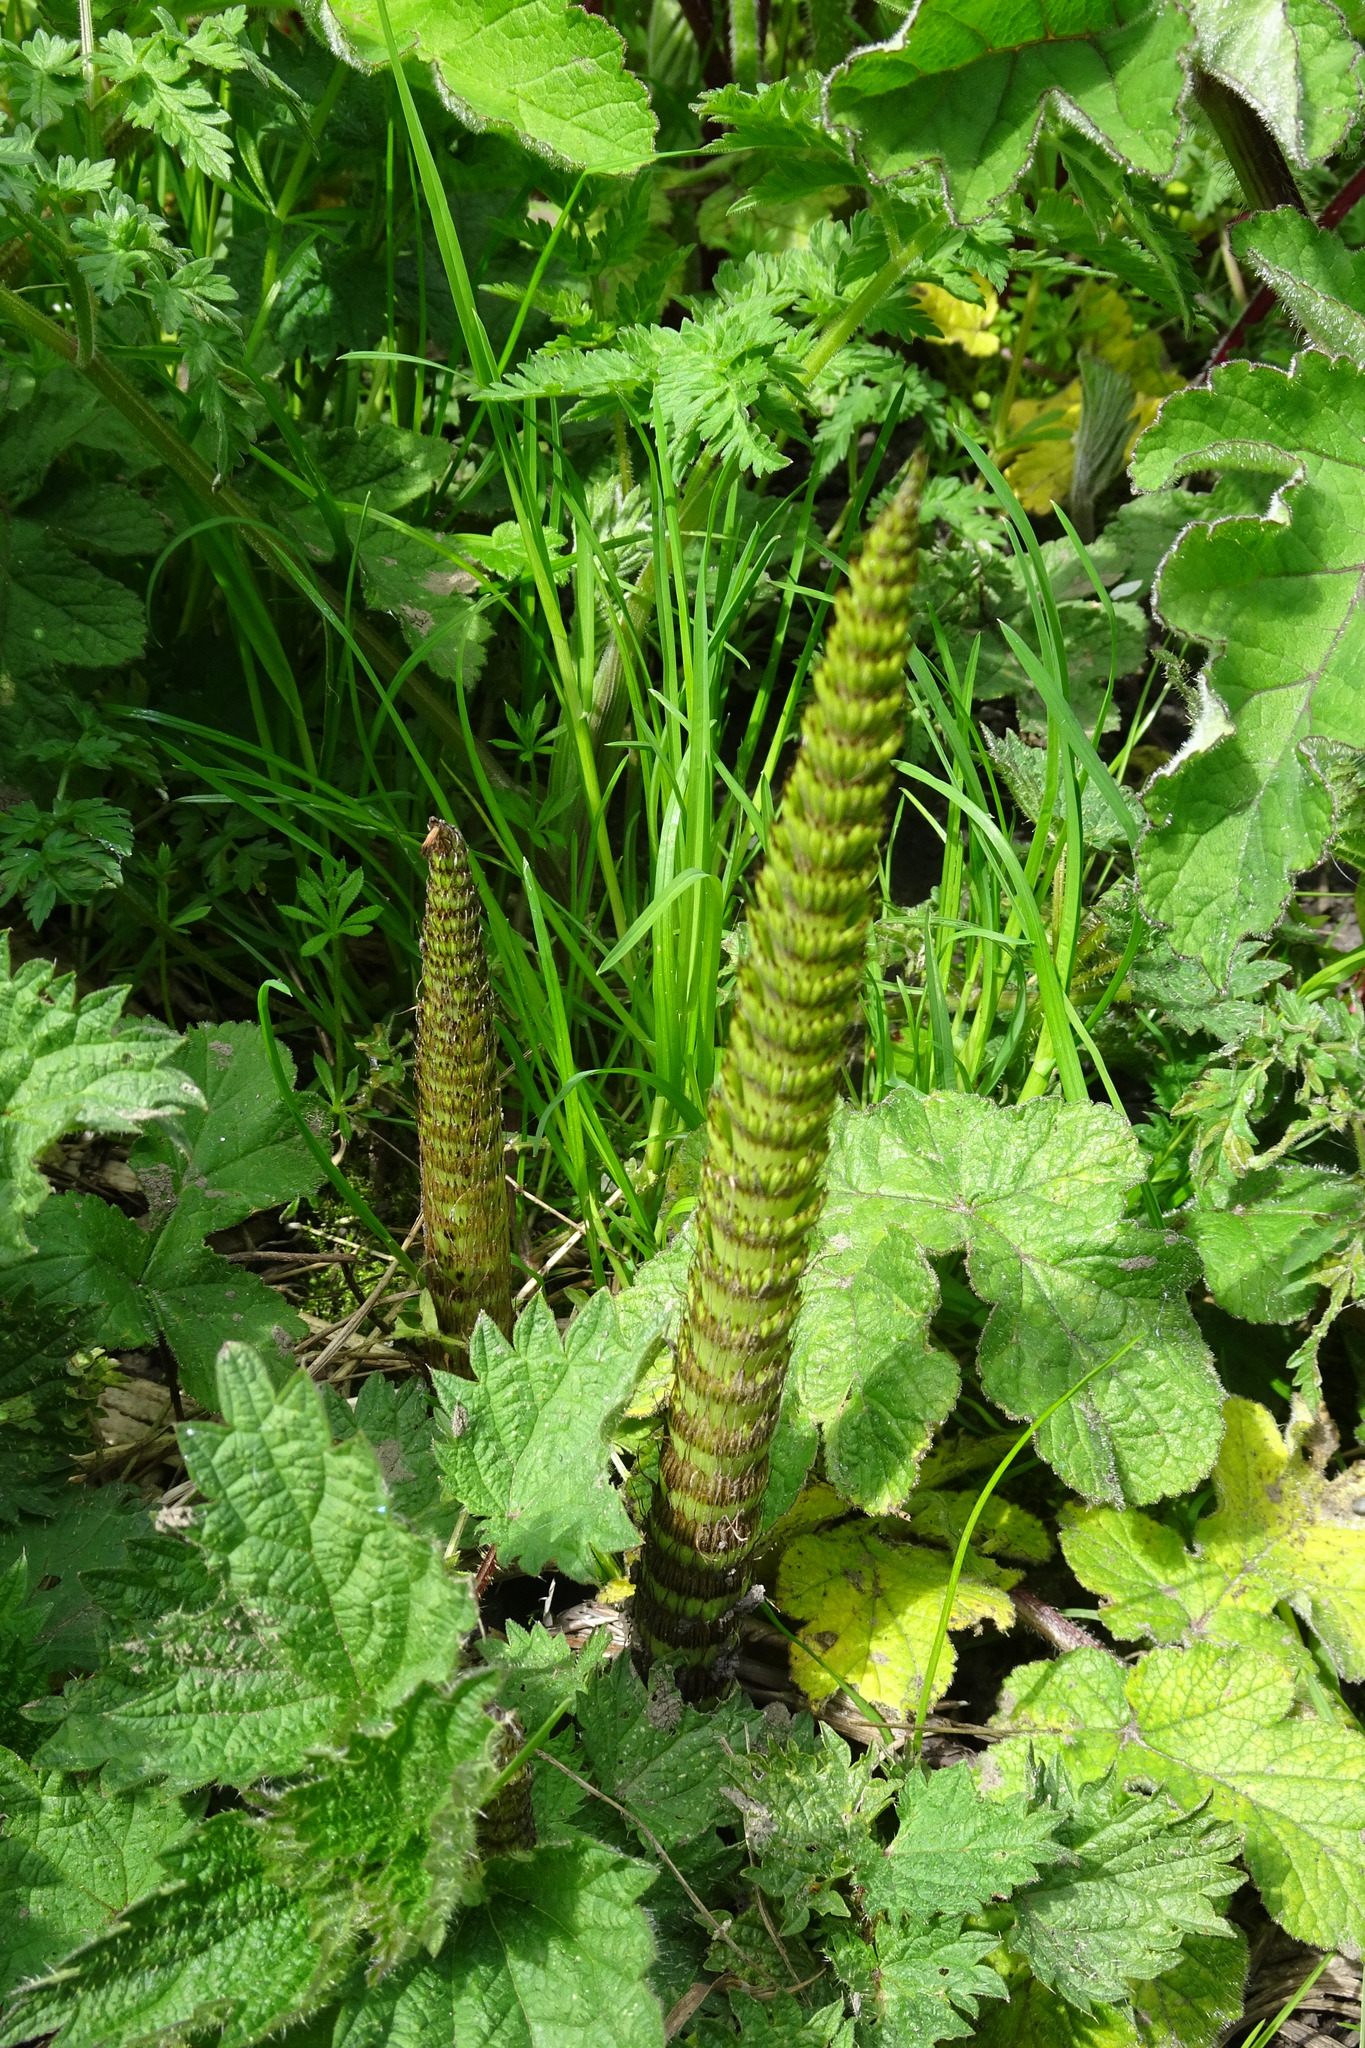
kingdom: Plantae
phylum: Tracheophyta
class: Polypodiopsida
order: Equisetales
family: Equisetaceae
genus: Equisetum
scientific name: Equisetum telmateia
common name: Great horsetail
